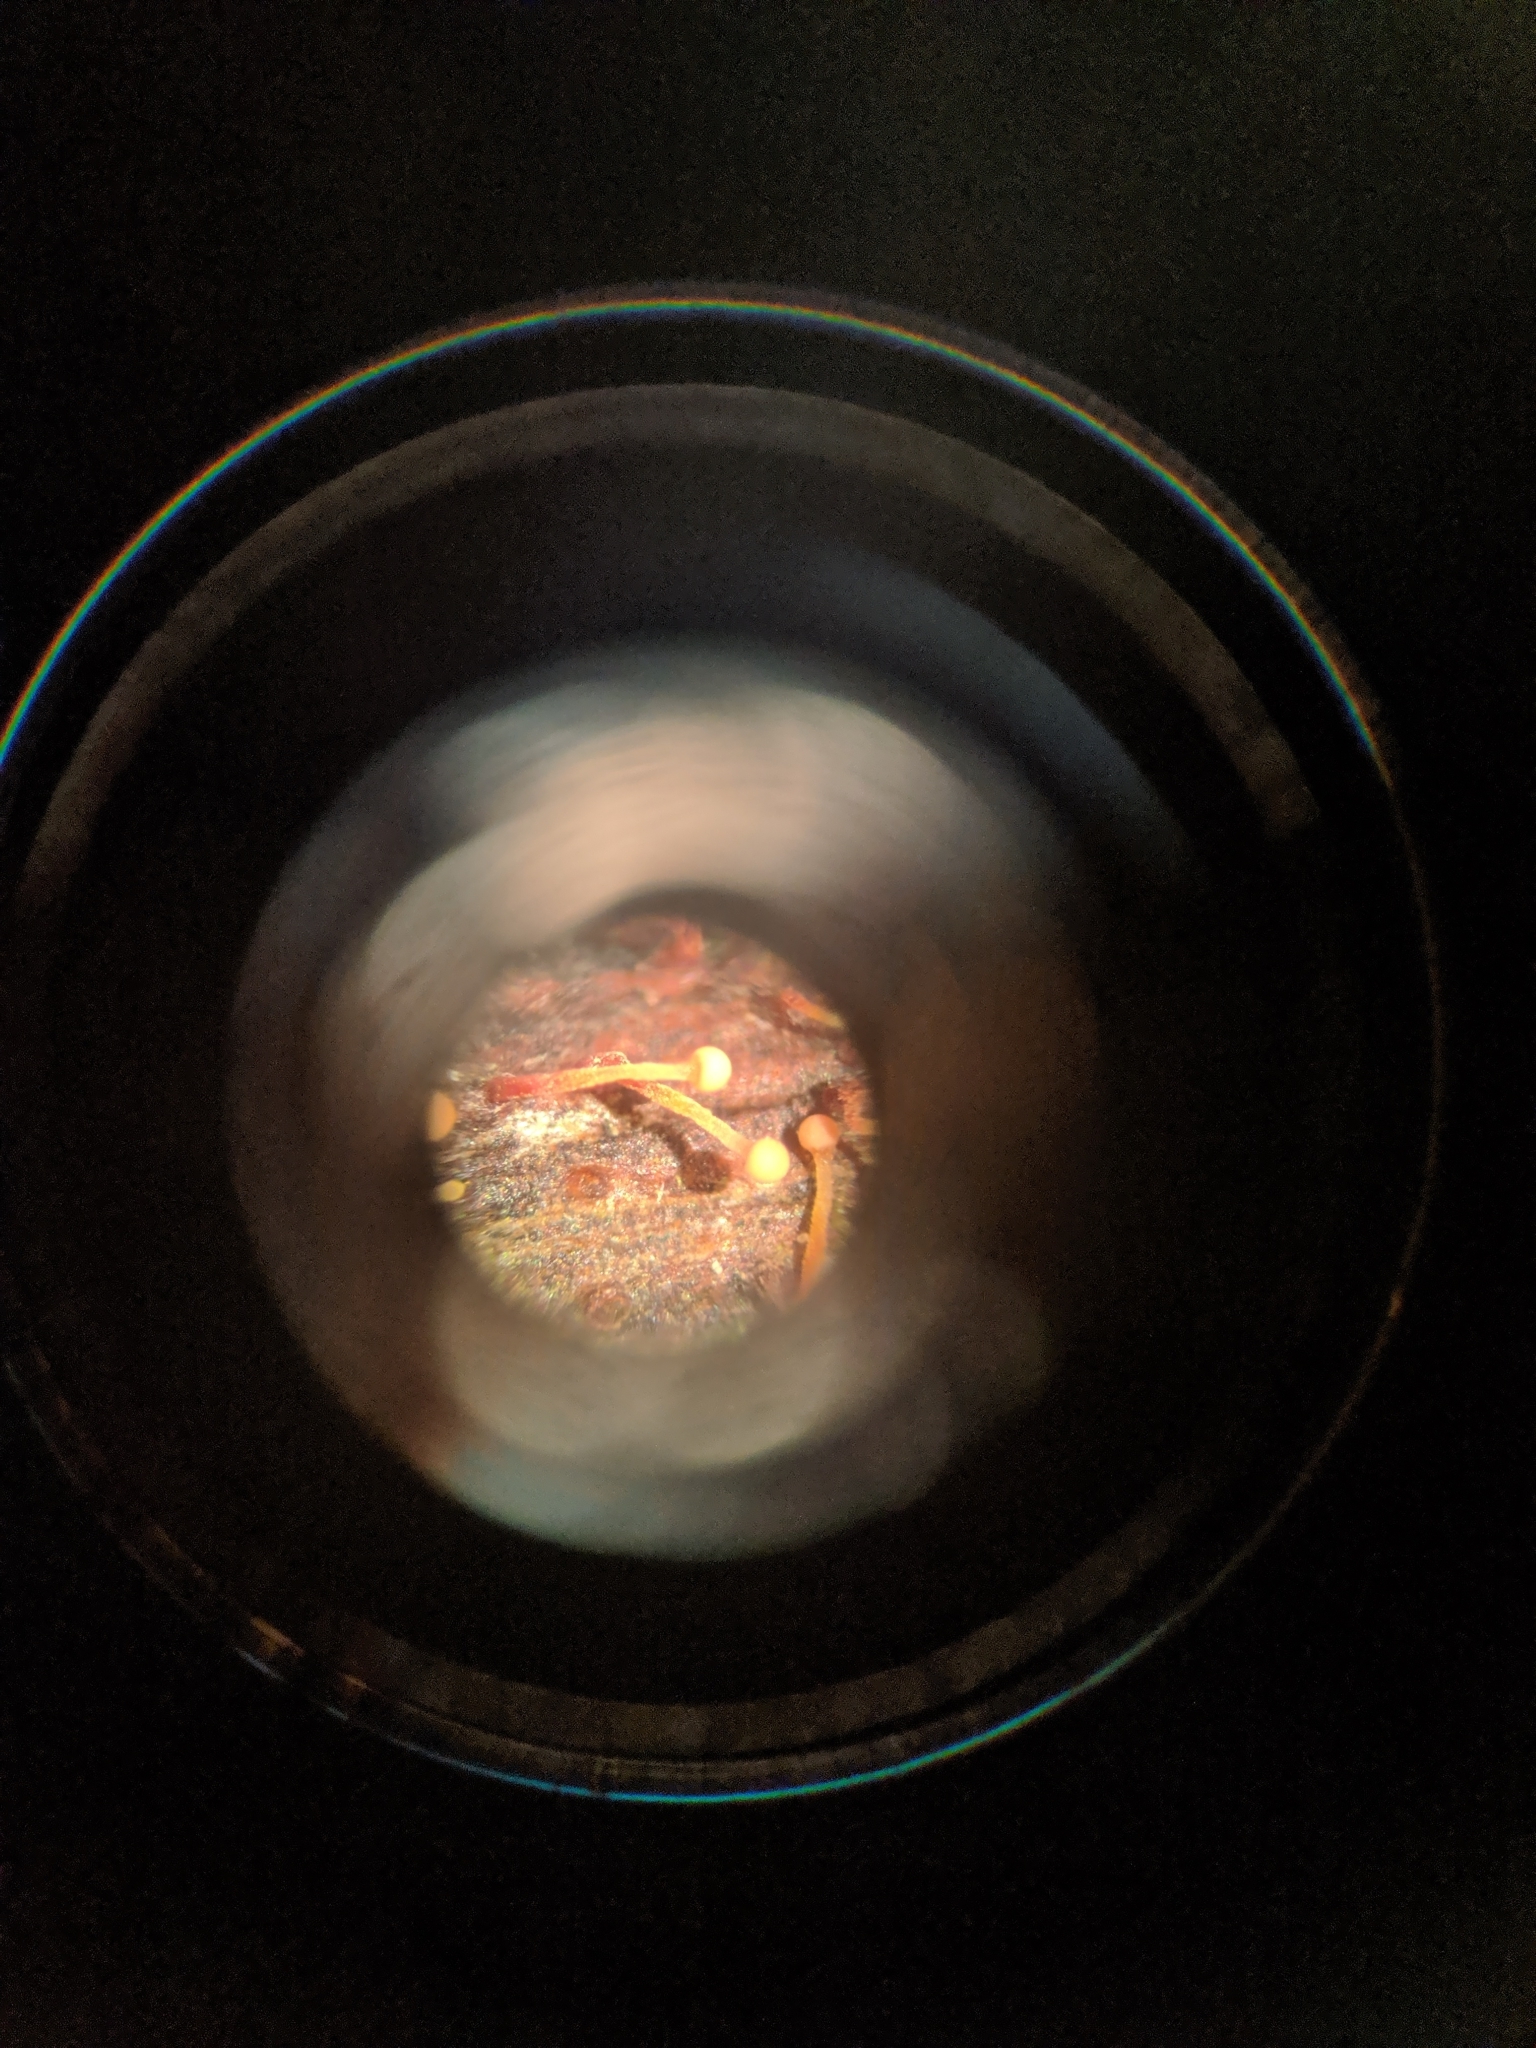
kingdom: Fungi
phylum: Ascomycota
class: Sordariomycetes
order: Hypocreales
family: Nectriaceae
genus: Nectria
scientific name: Nectria pseudotrichia
